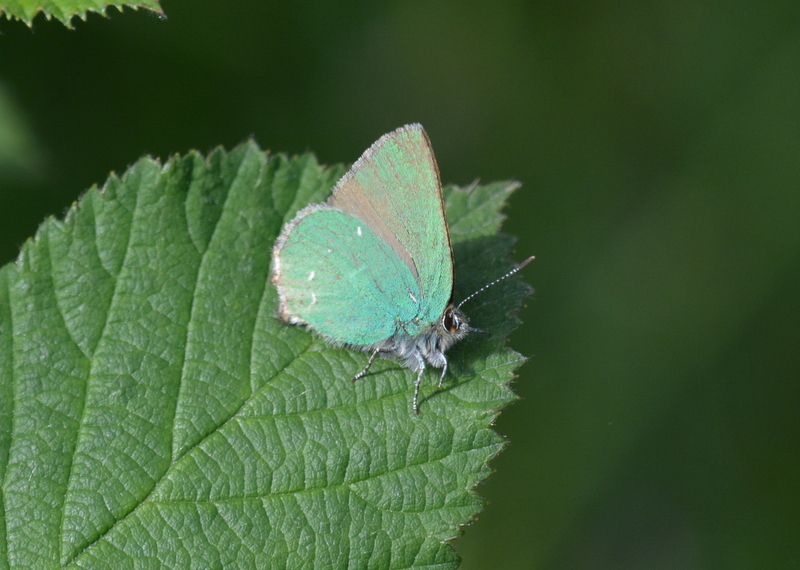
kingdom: Animalia
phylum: Arthropoda
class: Insecta
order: Lepidoptera
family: Lycaenidae
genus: Callophrys
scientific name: Callophrys rubi
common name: Green hairstreak
